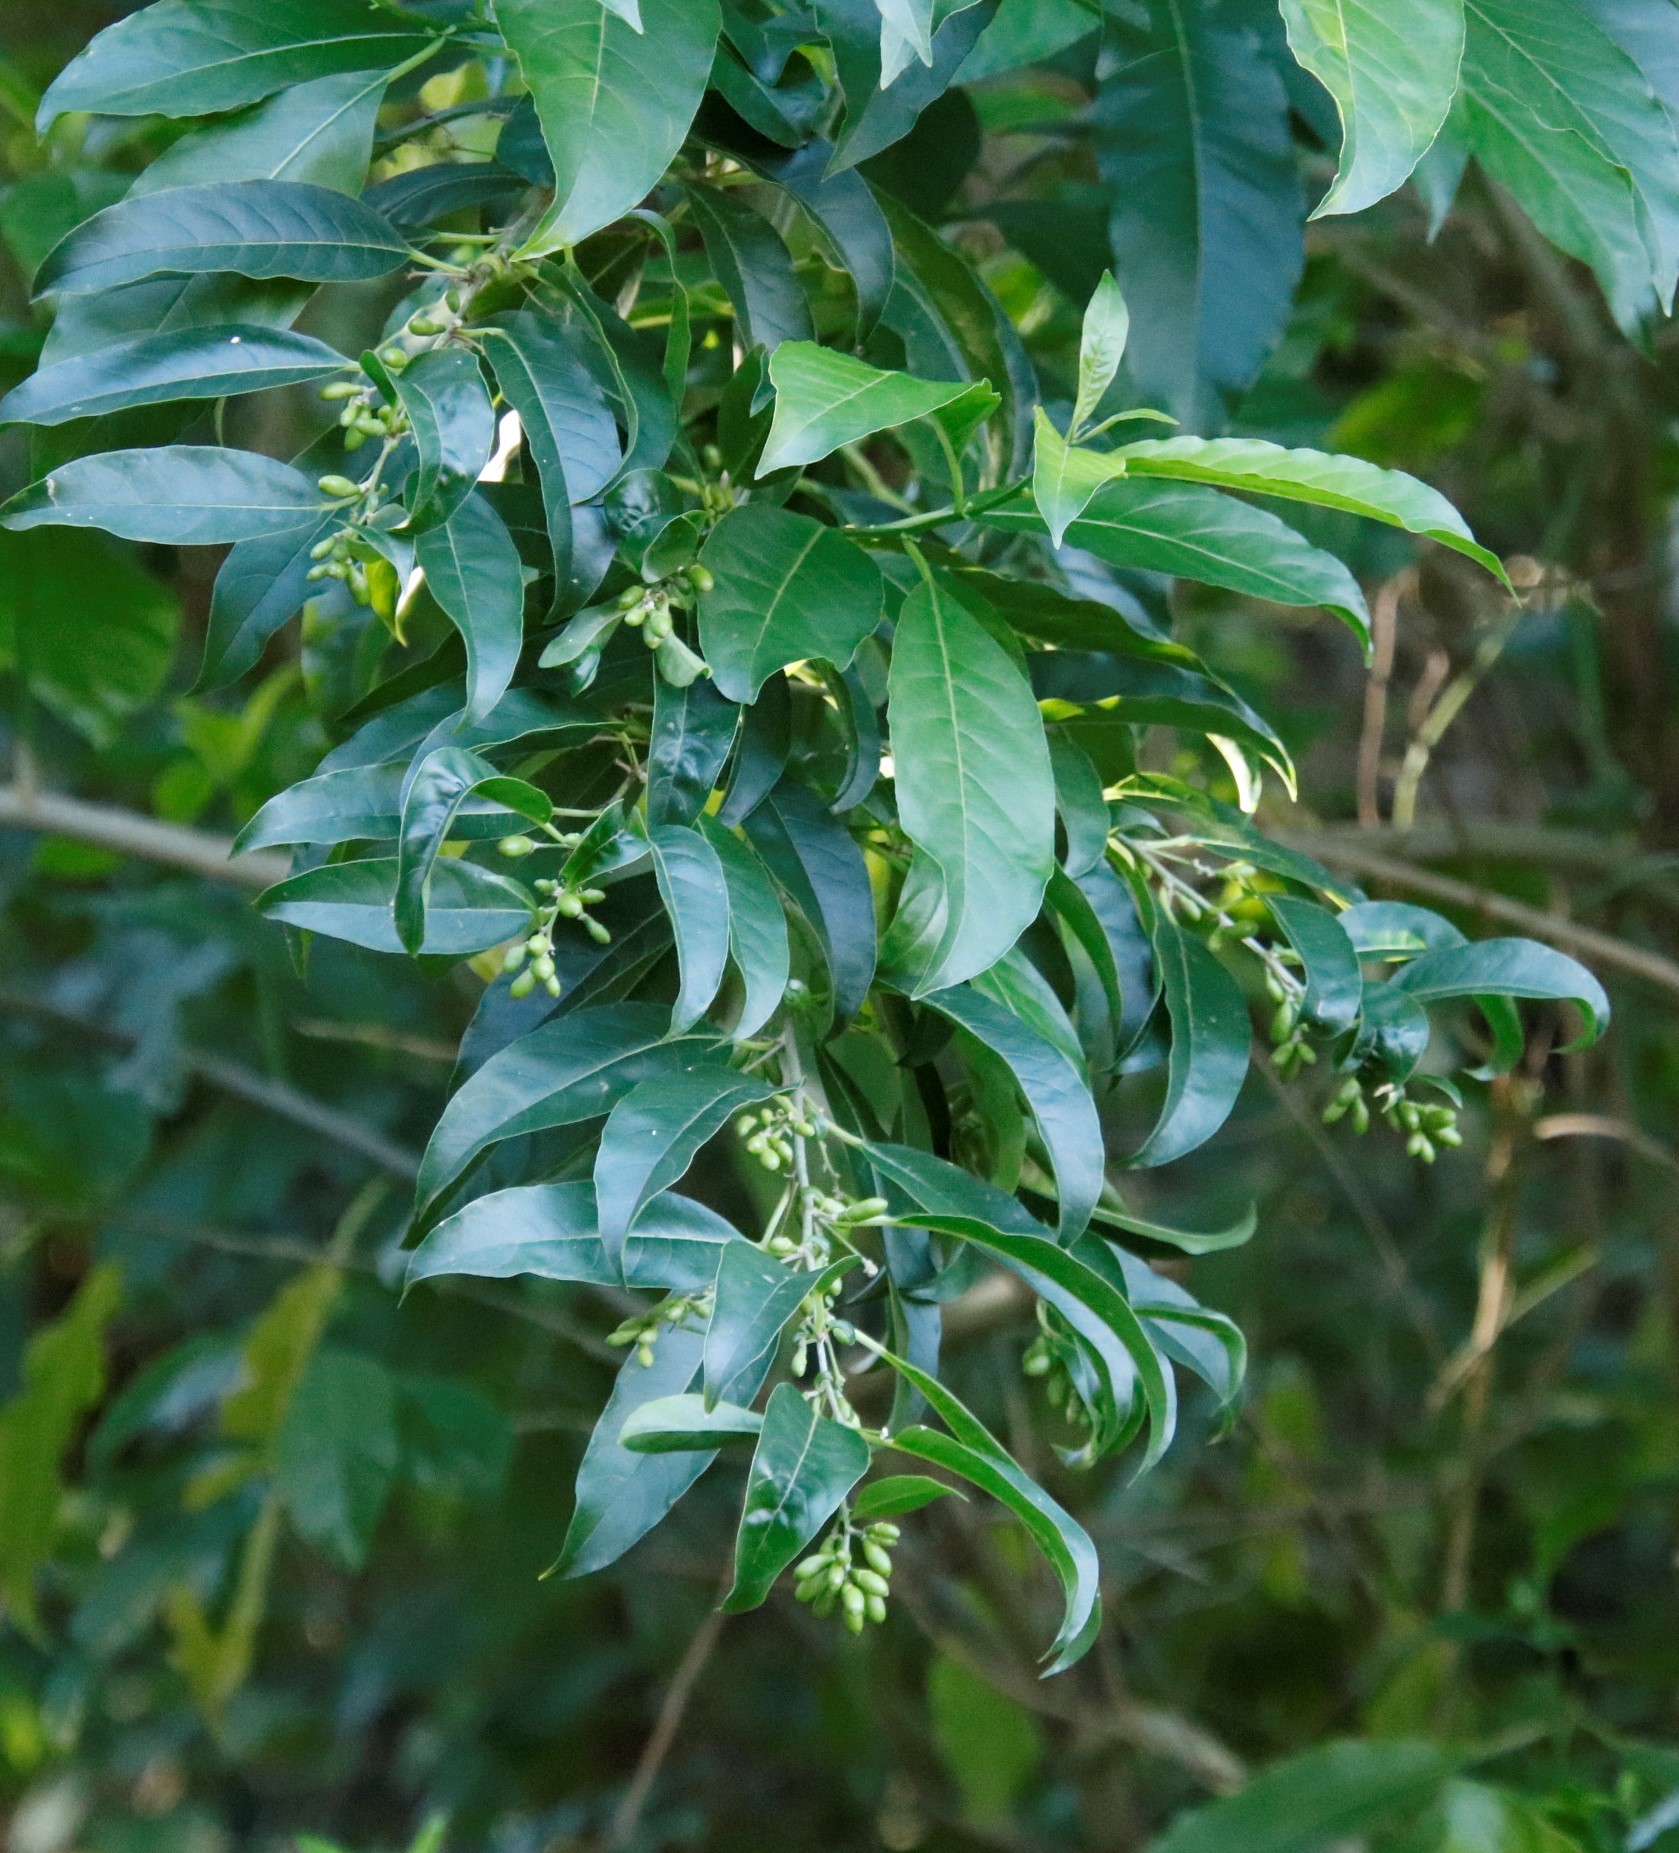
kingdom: Plantae
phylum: Tracheophyta
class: Magnoliopsida
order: Solanales
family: Solanaceae
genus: Cestrum
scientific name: Cestrum laevigatum
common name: Inkberry
